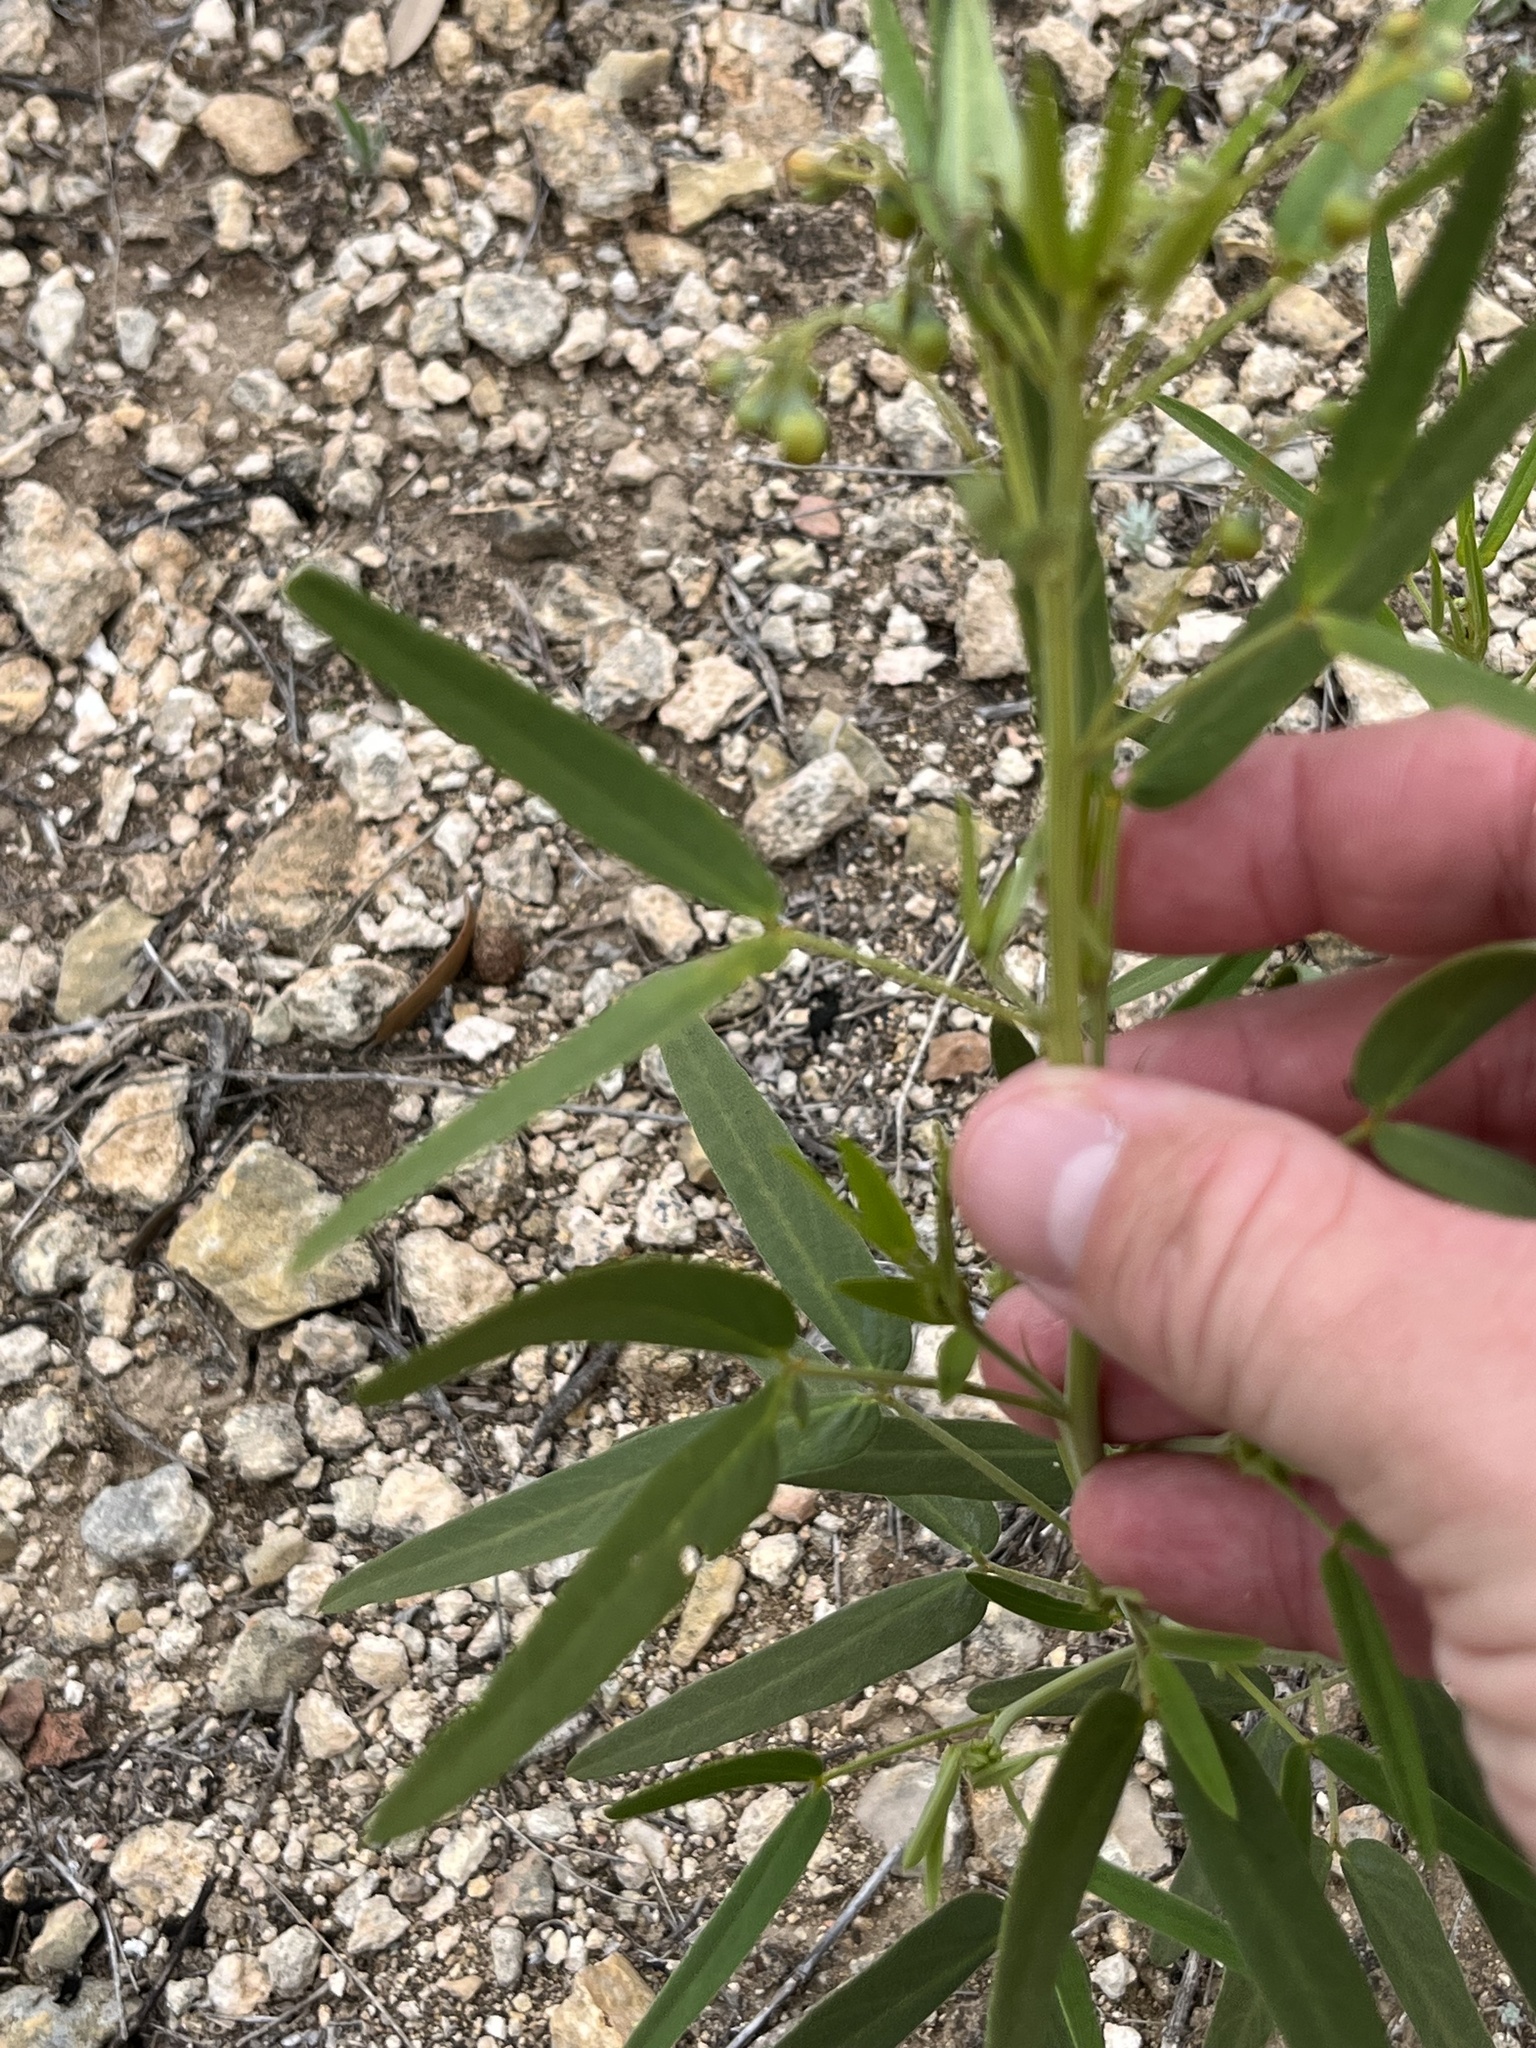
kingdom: Plantae
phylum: Tracheophyta
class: Magnoliopsida
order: Fabales
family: Fabaceae
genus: Senna
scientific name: Senna roemeriana
